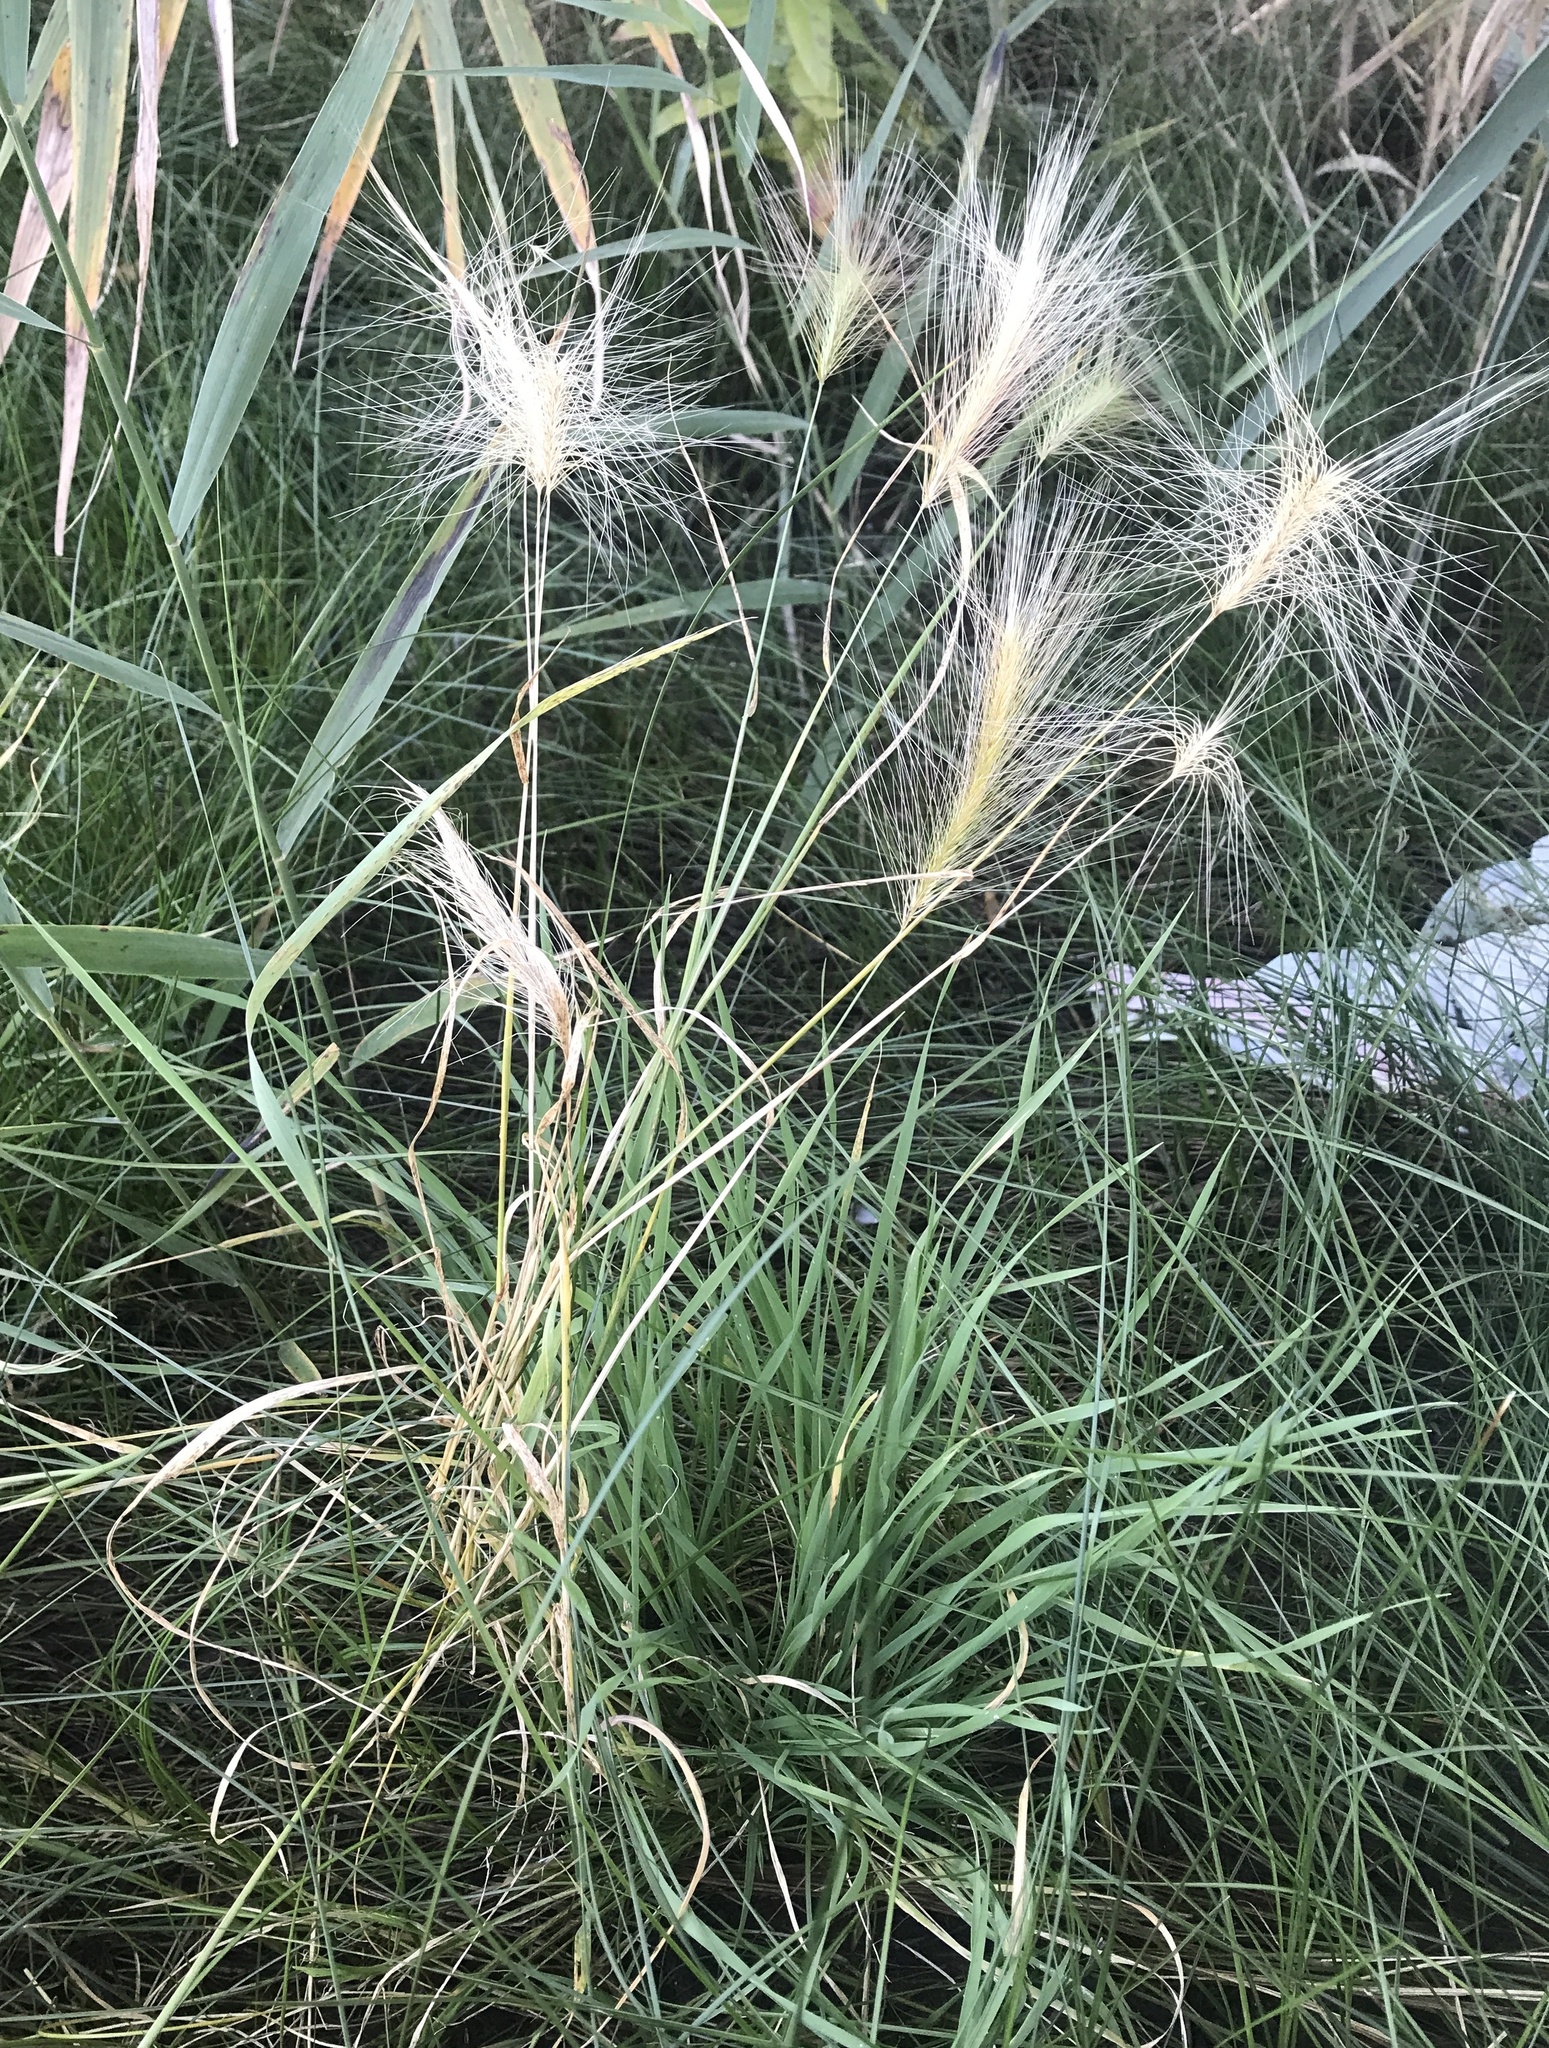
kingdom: Plantae
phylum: Tracheophyta
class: Liliopsida
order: Poales
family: Poaceae
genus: Hordeum
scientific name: Hordeum jubatum
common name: Foxtail barley
